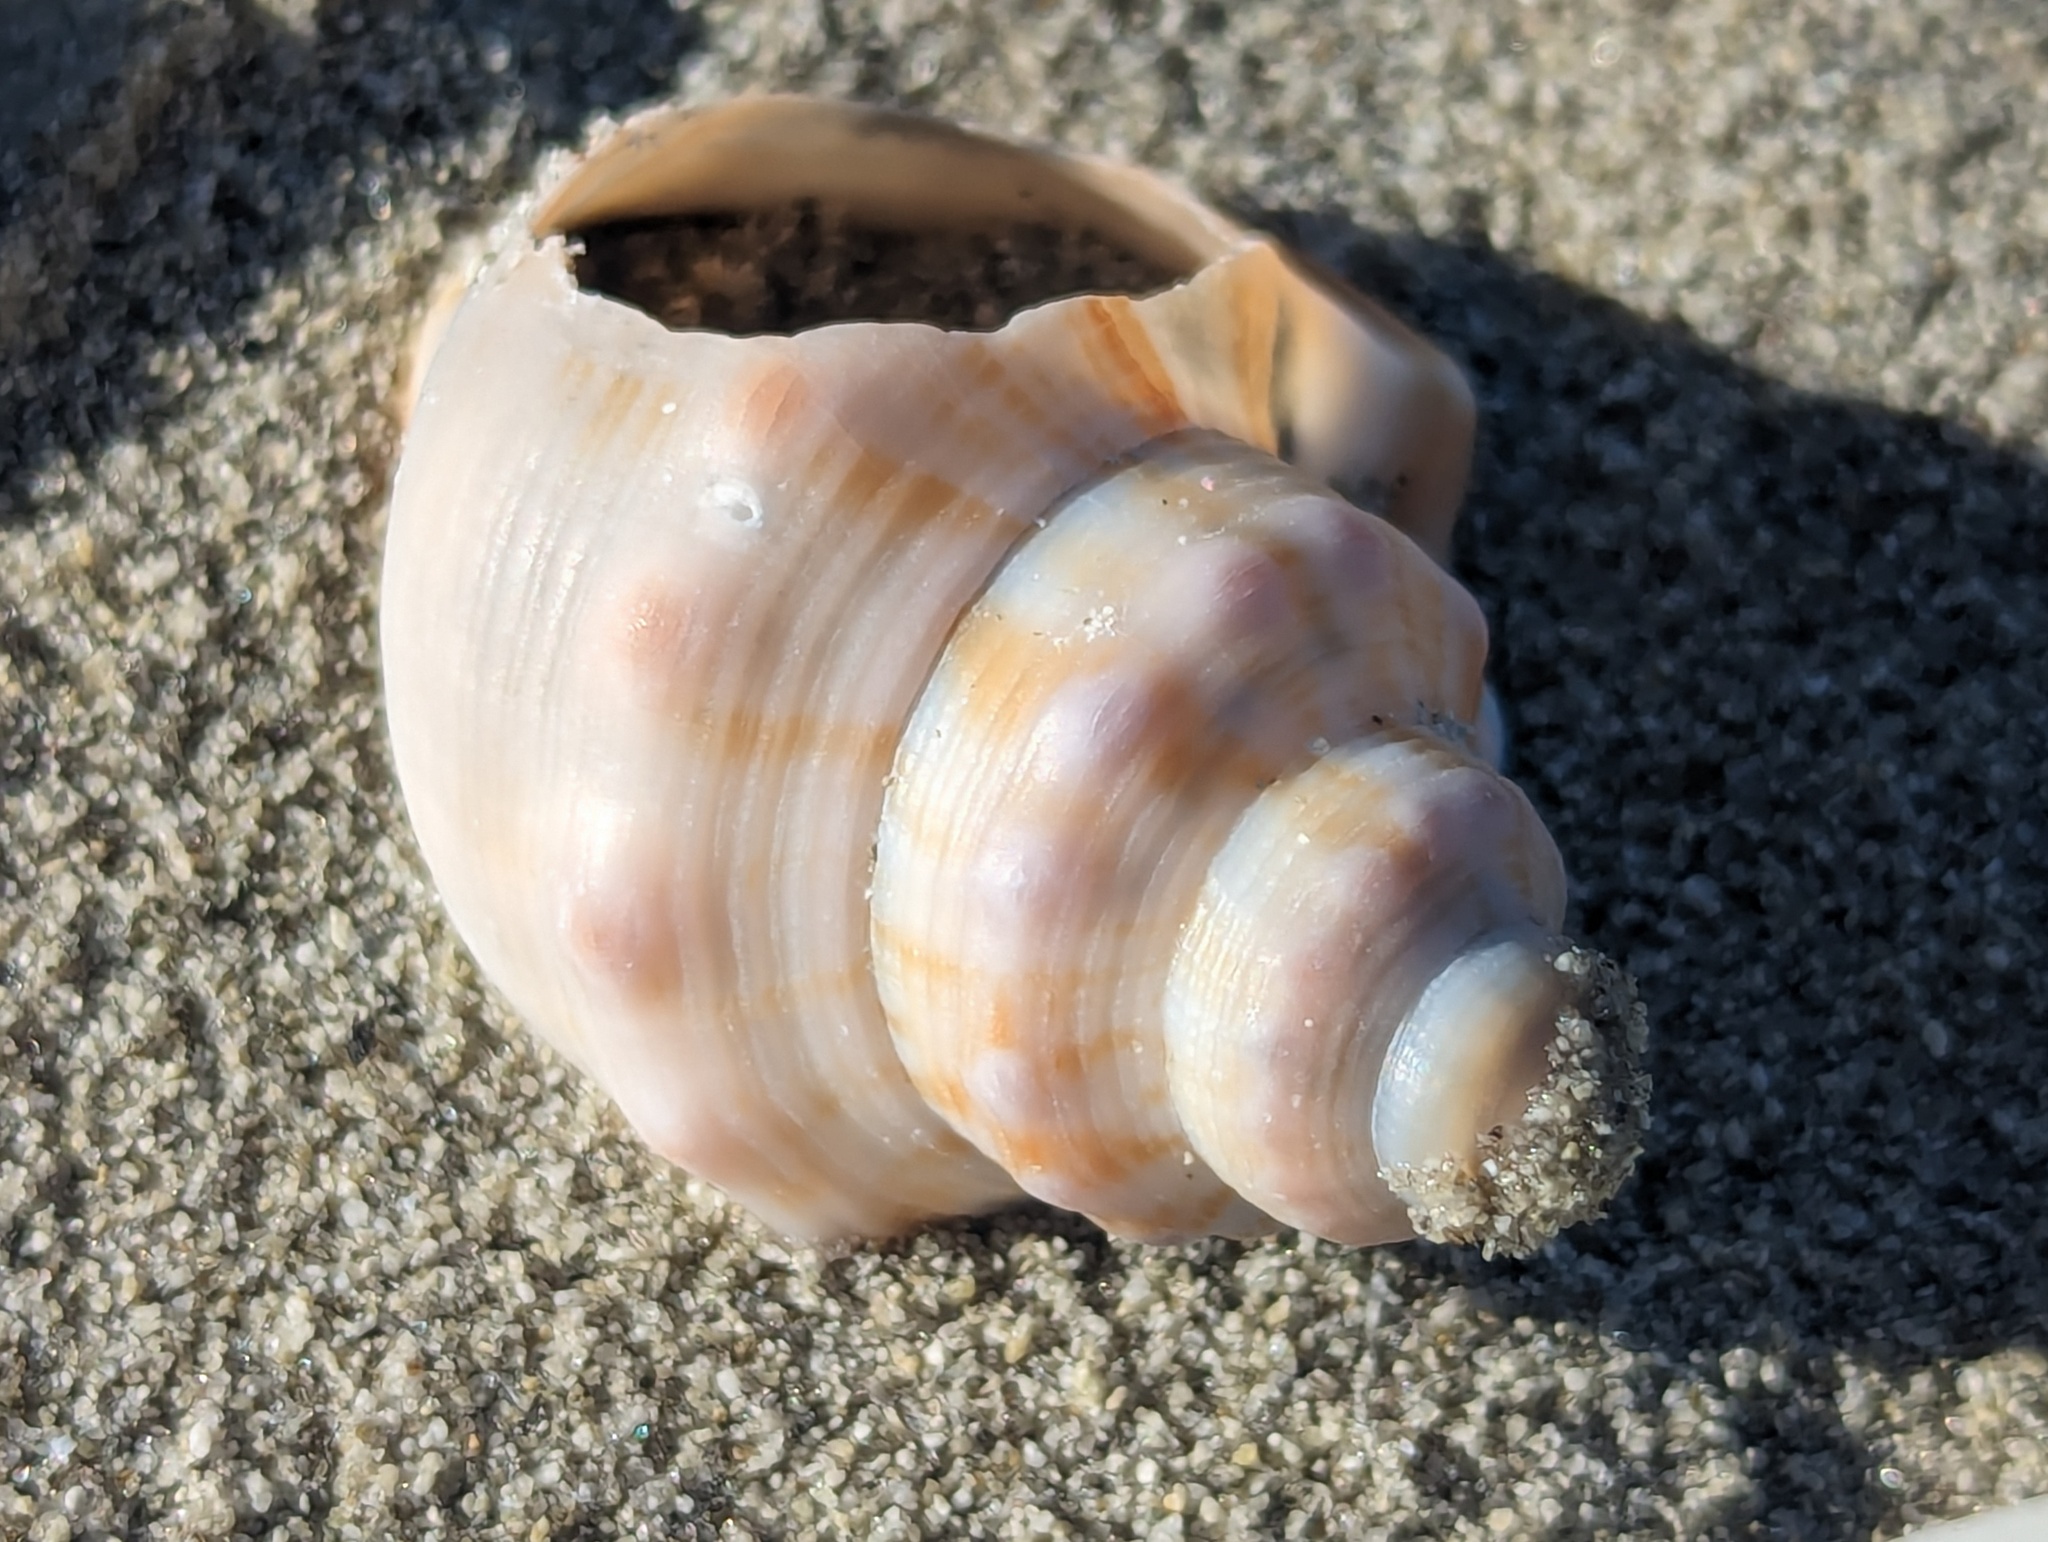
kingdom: Animalia
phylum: Mollusca
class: Gastropoda
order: Littorinimorpha
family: Struthiolariidae
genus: Struthiolaria
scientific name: Struthiolaria papulosa
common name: Large ostrich foot
